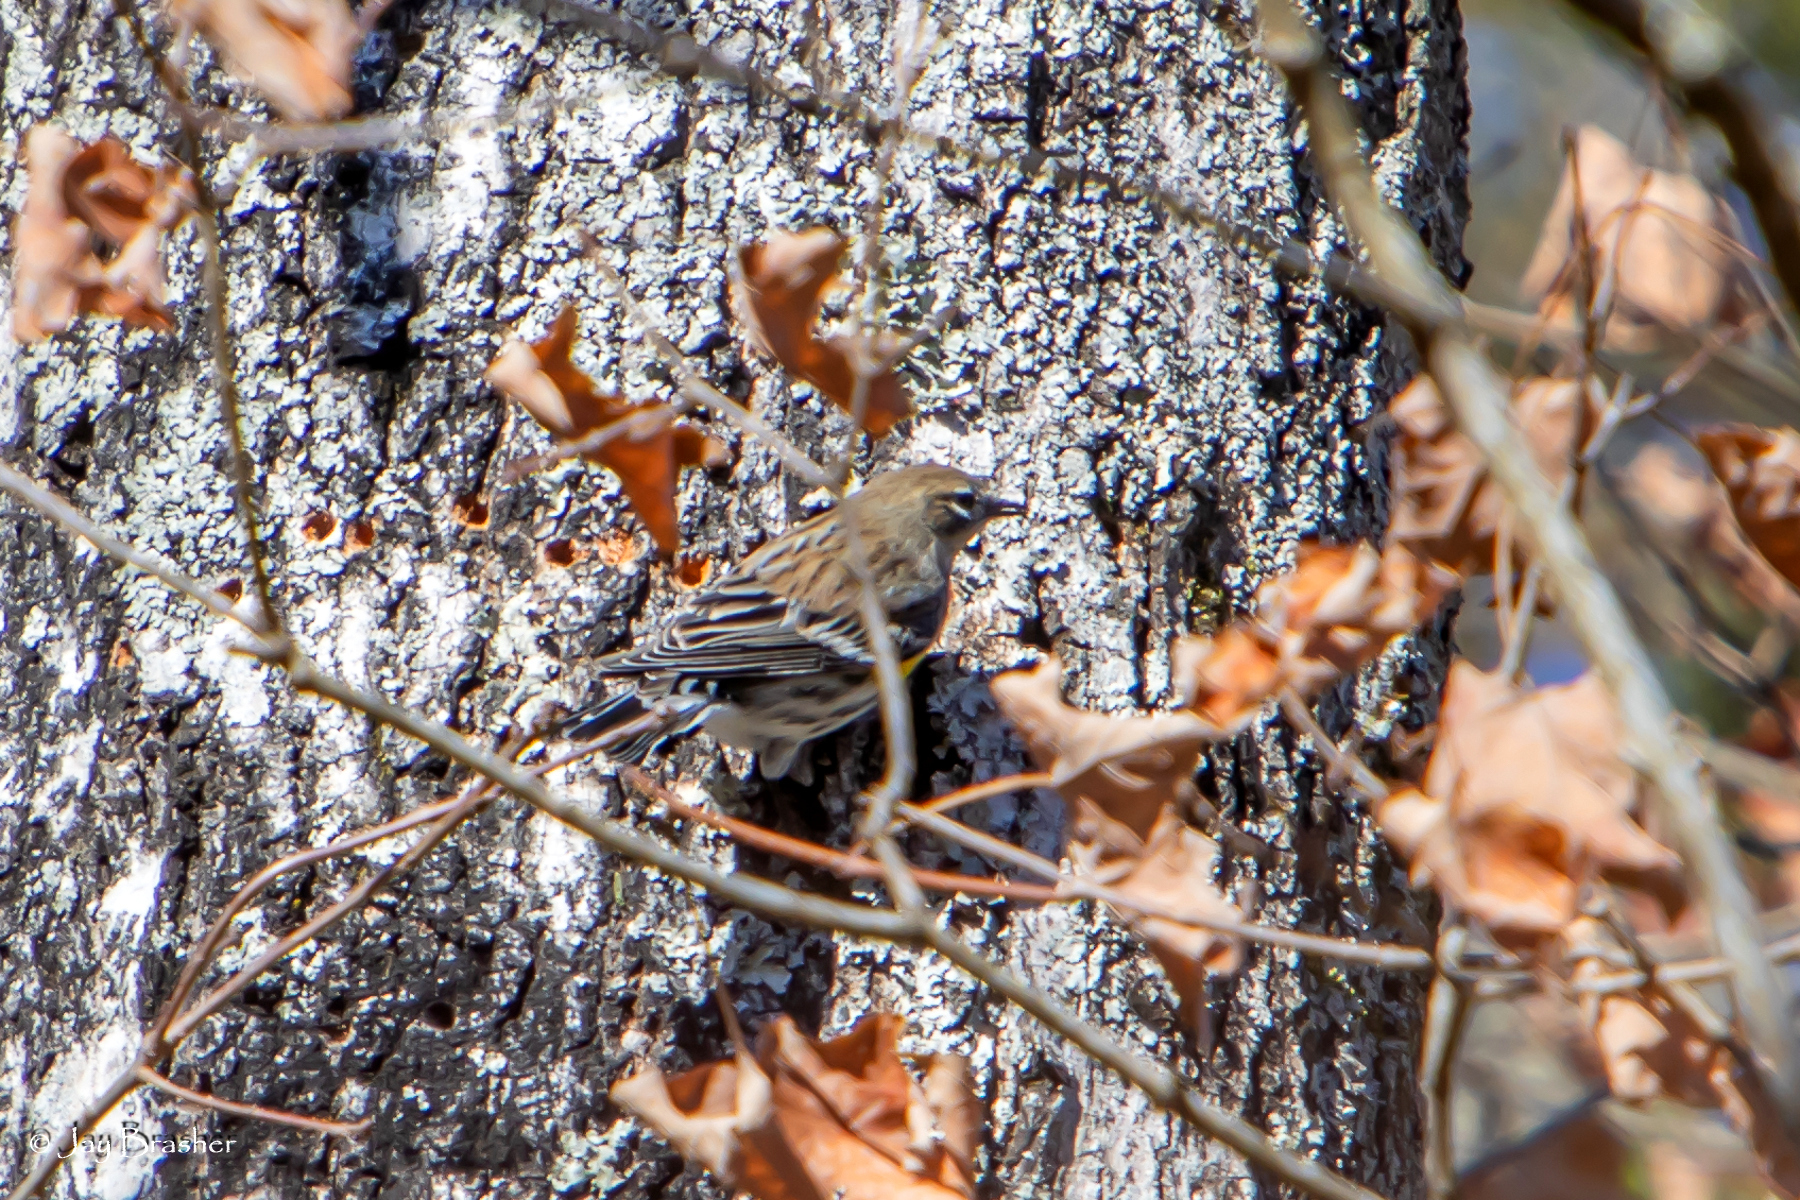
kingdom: Animalia
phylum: Chordata
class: Aves
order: Passeriformes
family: Parulidae
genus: Setophaga
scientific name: Setophaga coronata
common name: Myrtle warbler
